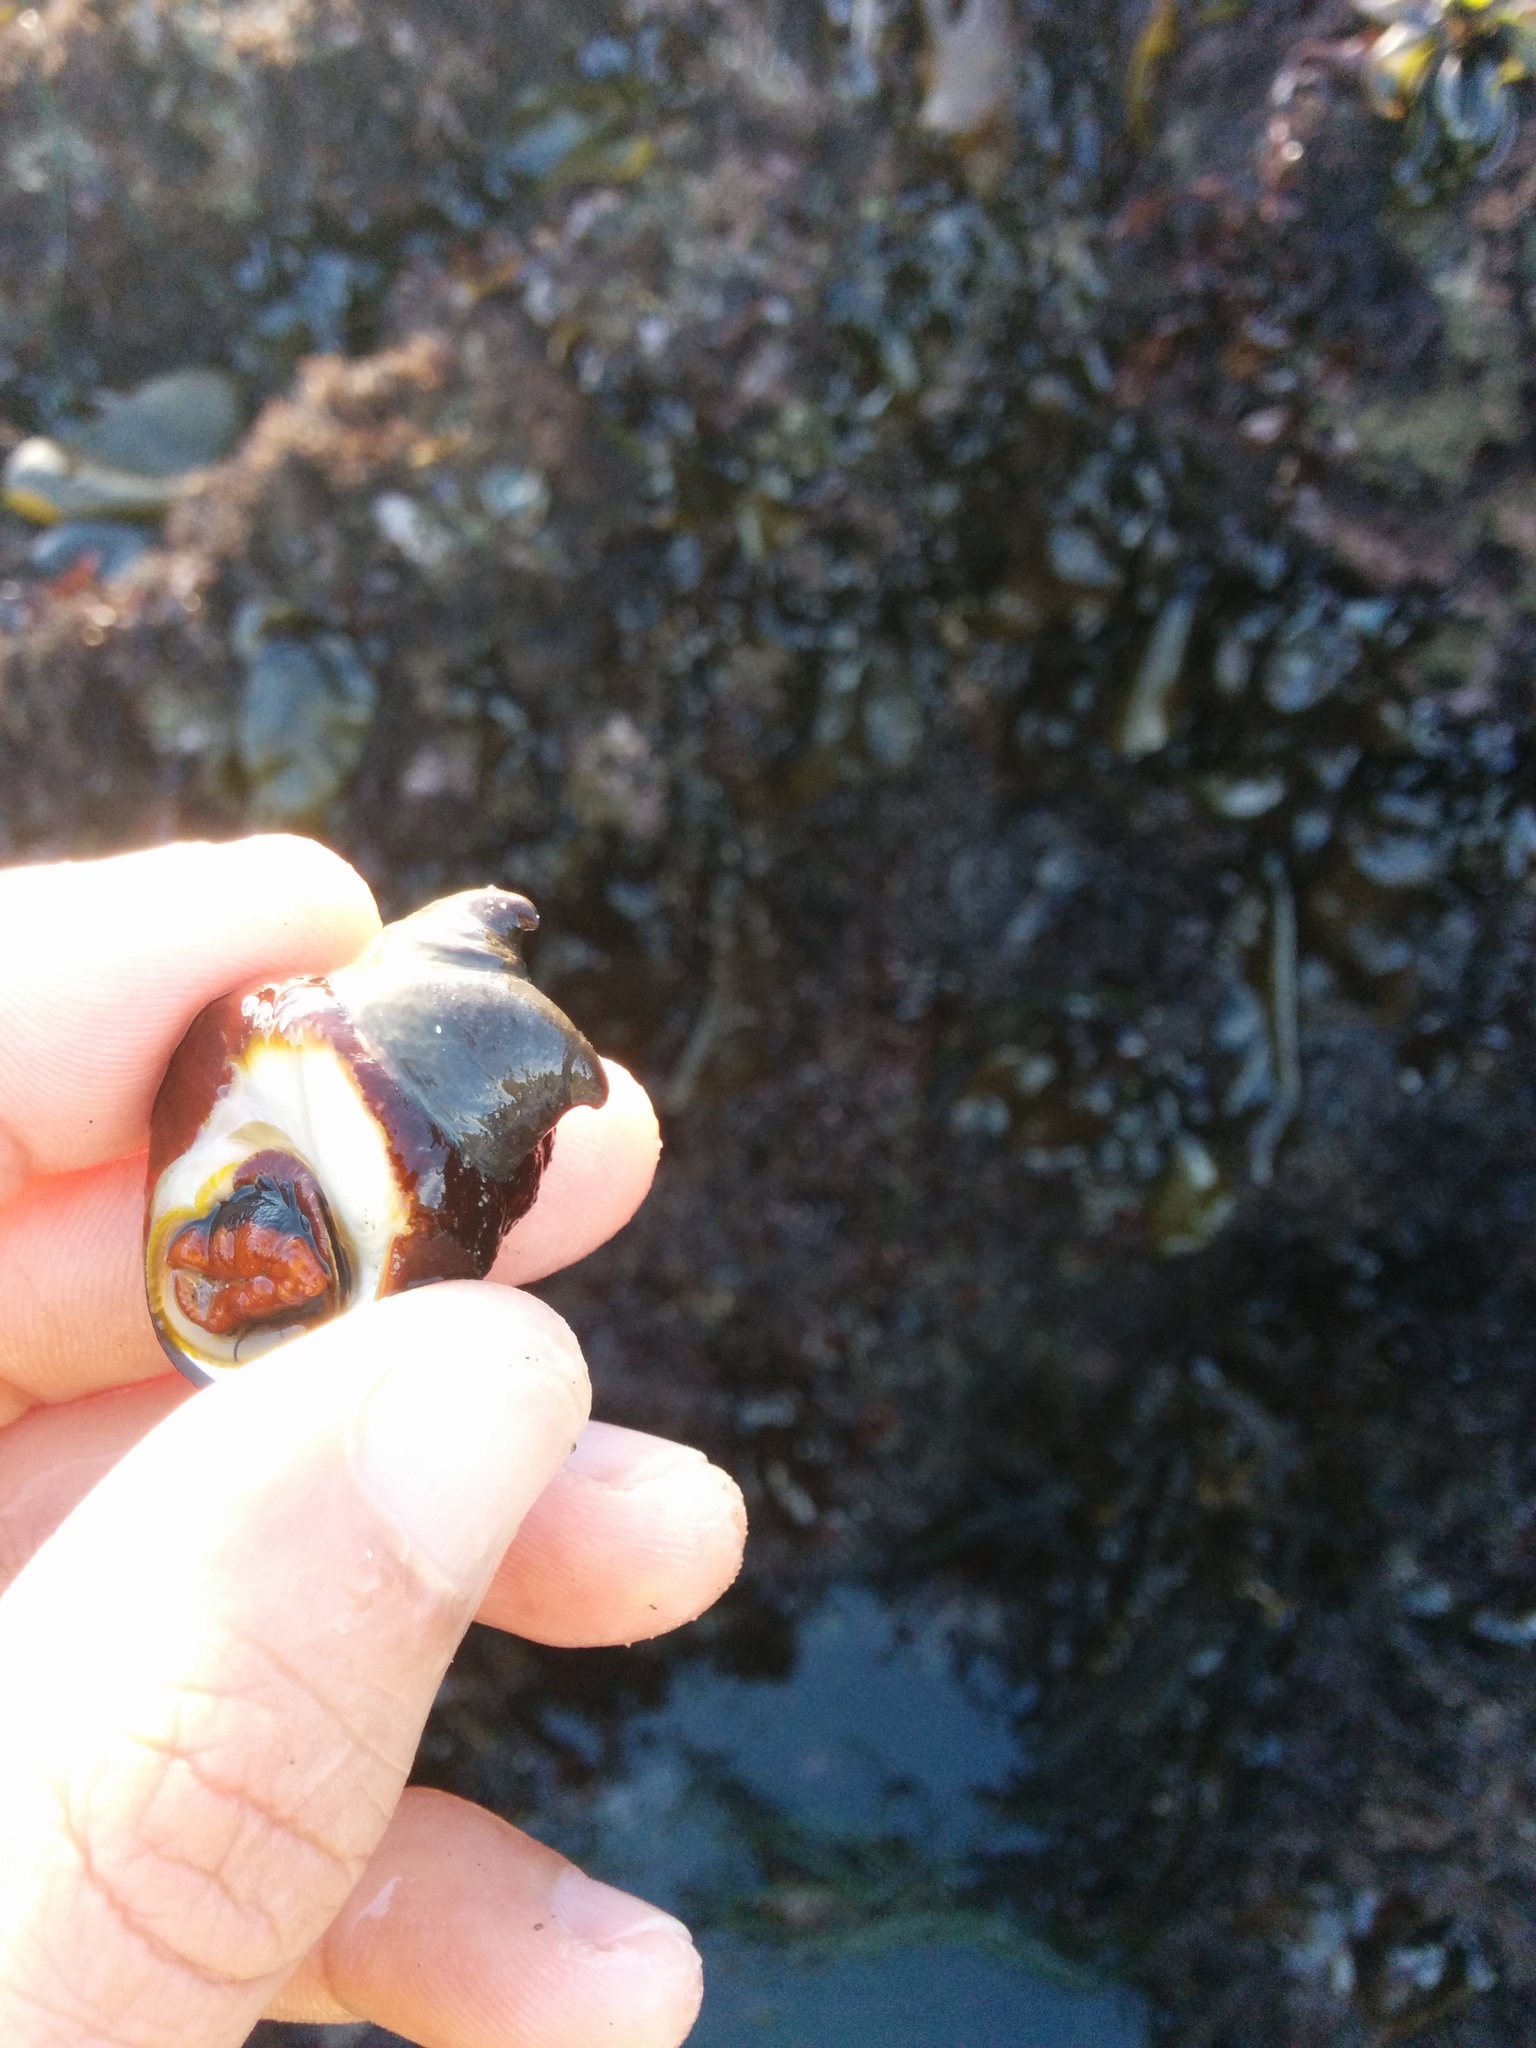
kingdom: Animalia
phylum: Mollusca
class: Gastropoda
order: Littorinimorpha
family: Calyptraeidae
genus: Crepidula
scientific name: Crepidula adunca
